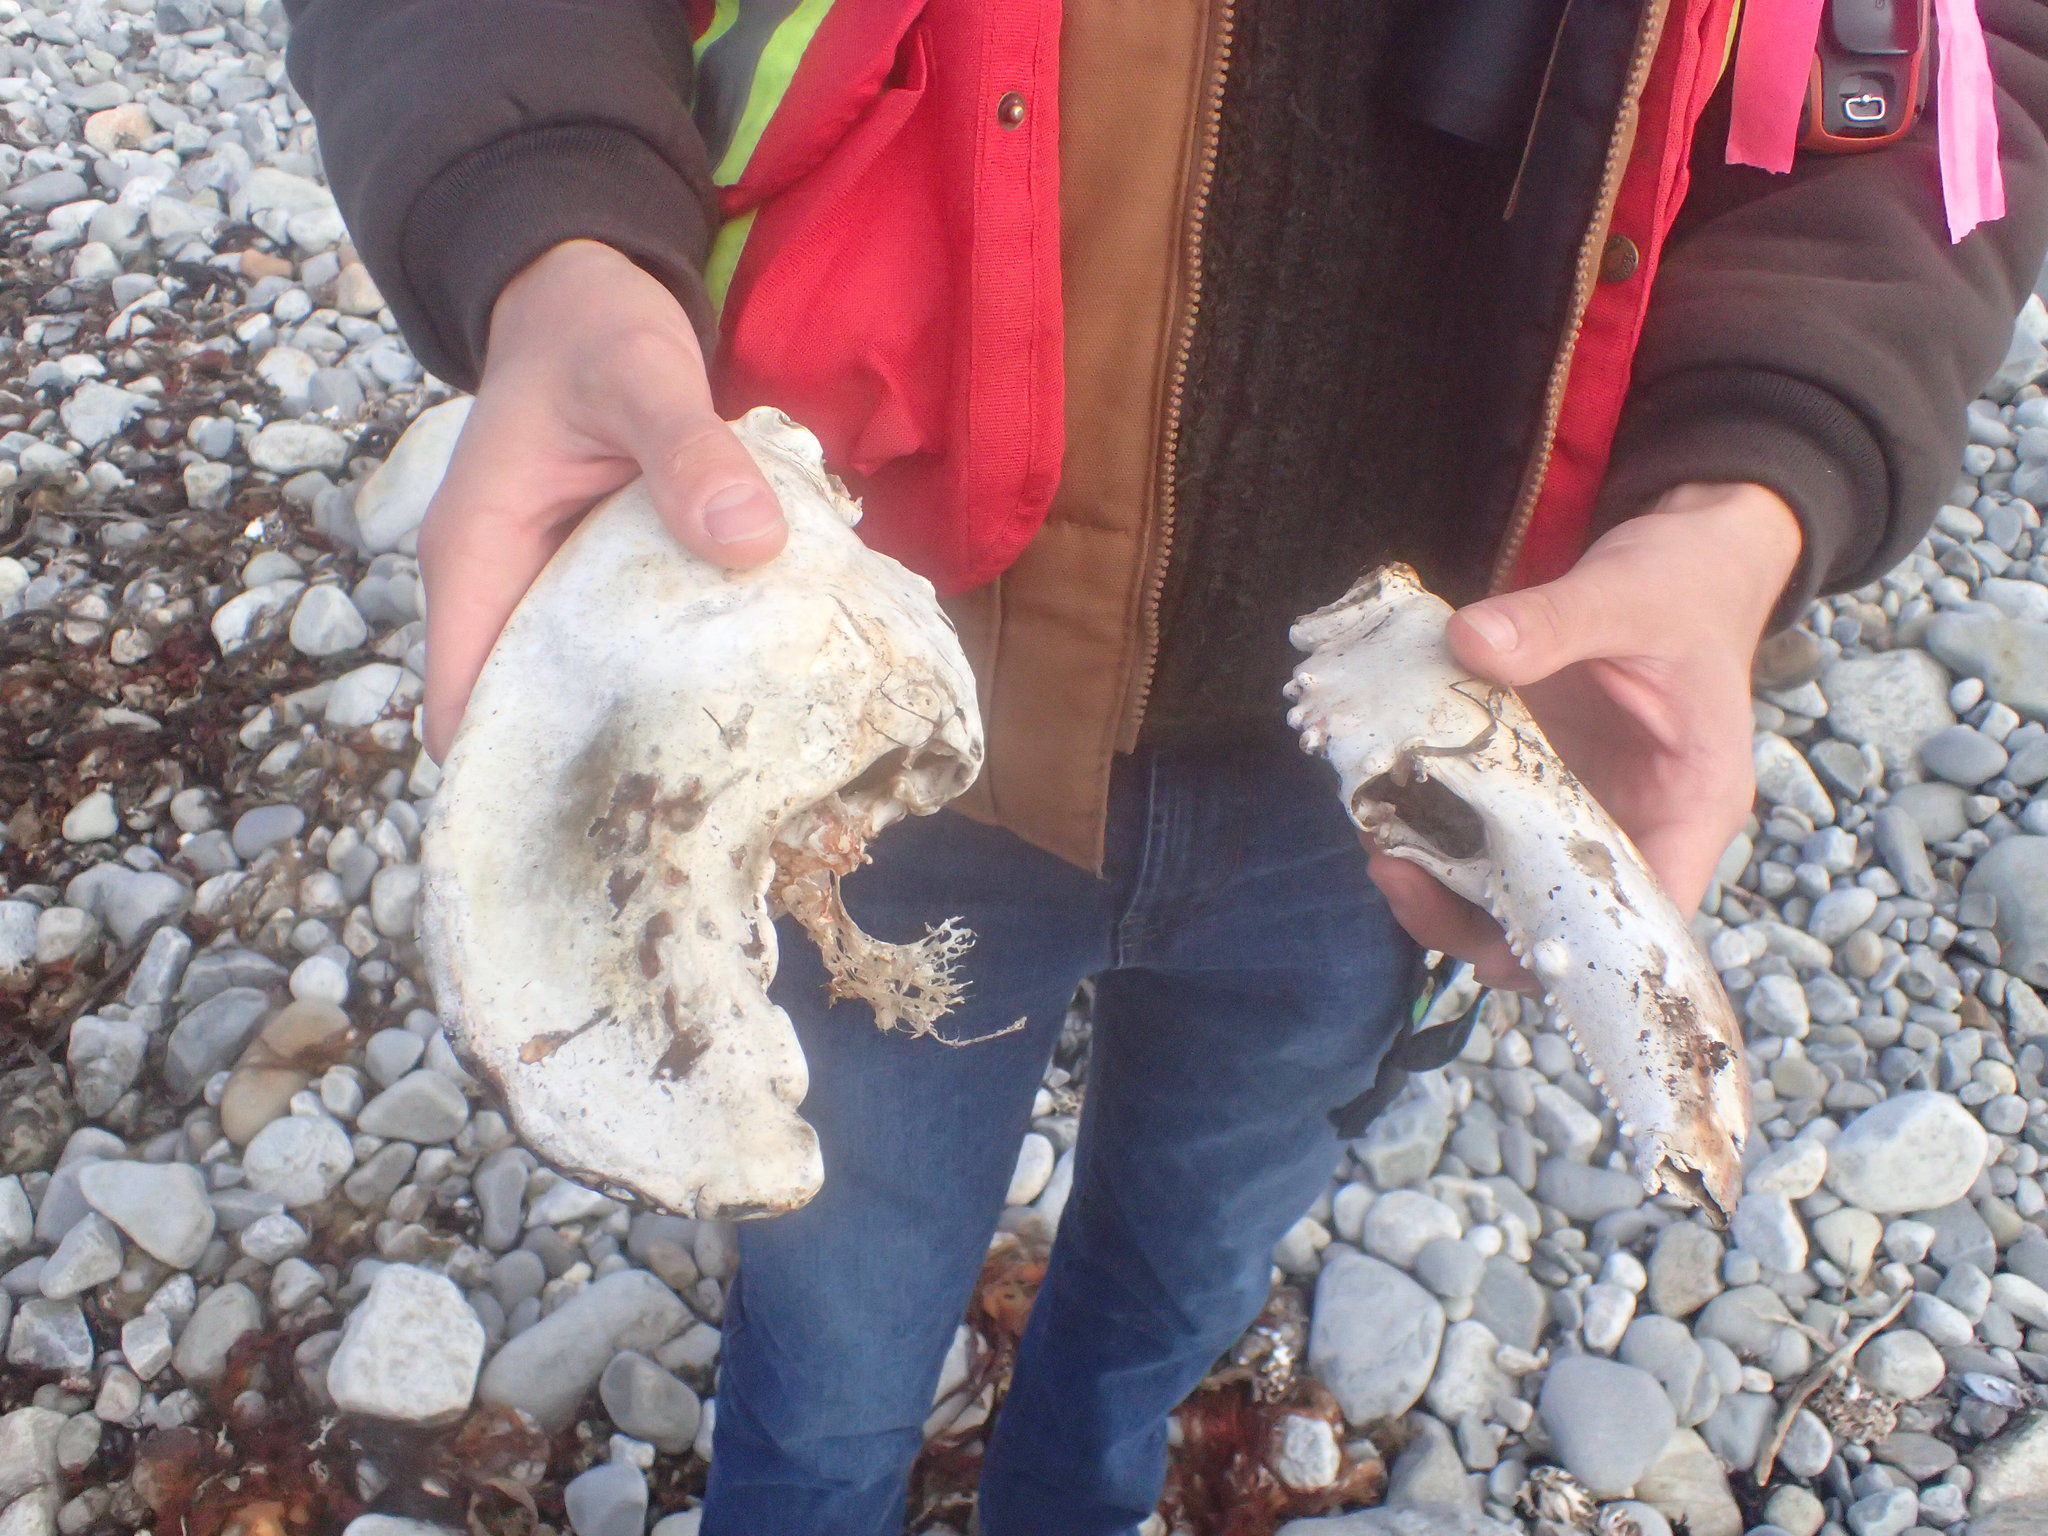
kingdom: Animalia
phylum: Arthropoda
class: Malacostraca
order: Decapoda
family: Nephropidae
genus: Homarus
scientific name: Homarus americanus
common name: American lobster
